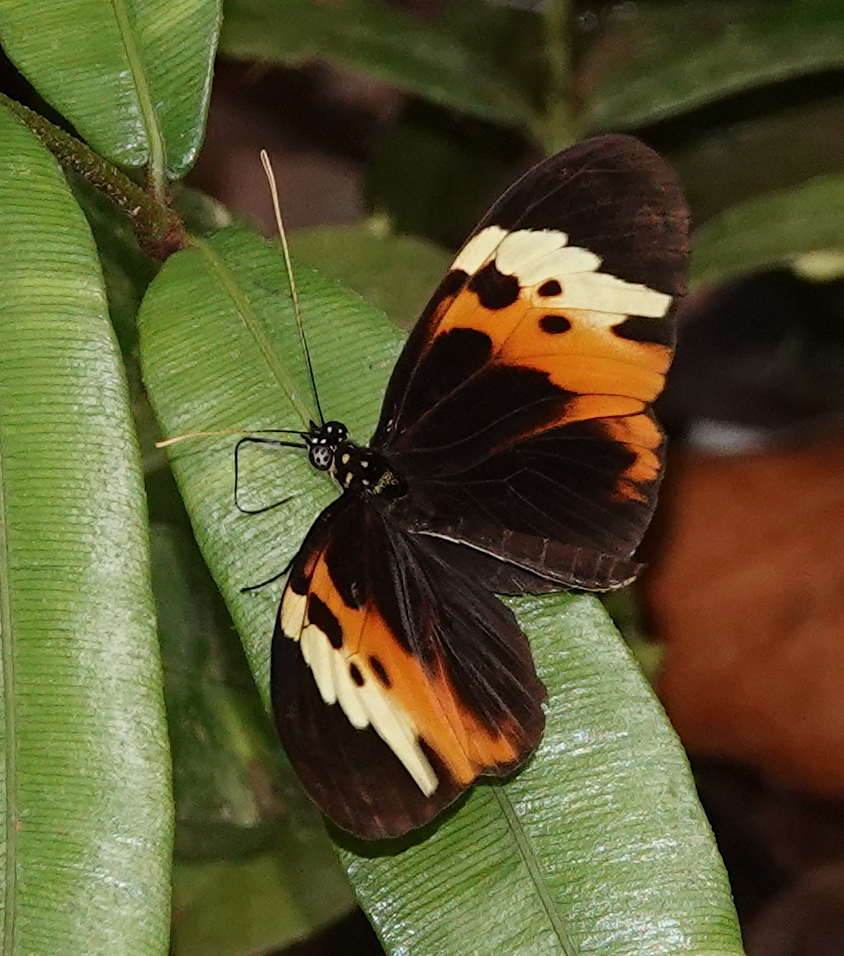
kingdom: Animalia
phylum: Arthropoda
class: Insecta
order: Lepidoptera
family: Nymphalidae
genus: Heliconius
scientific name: Heliconius numatus
